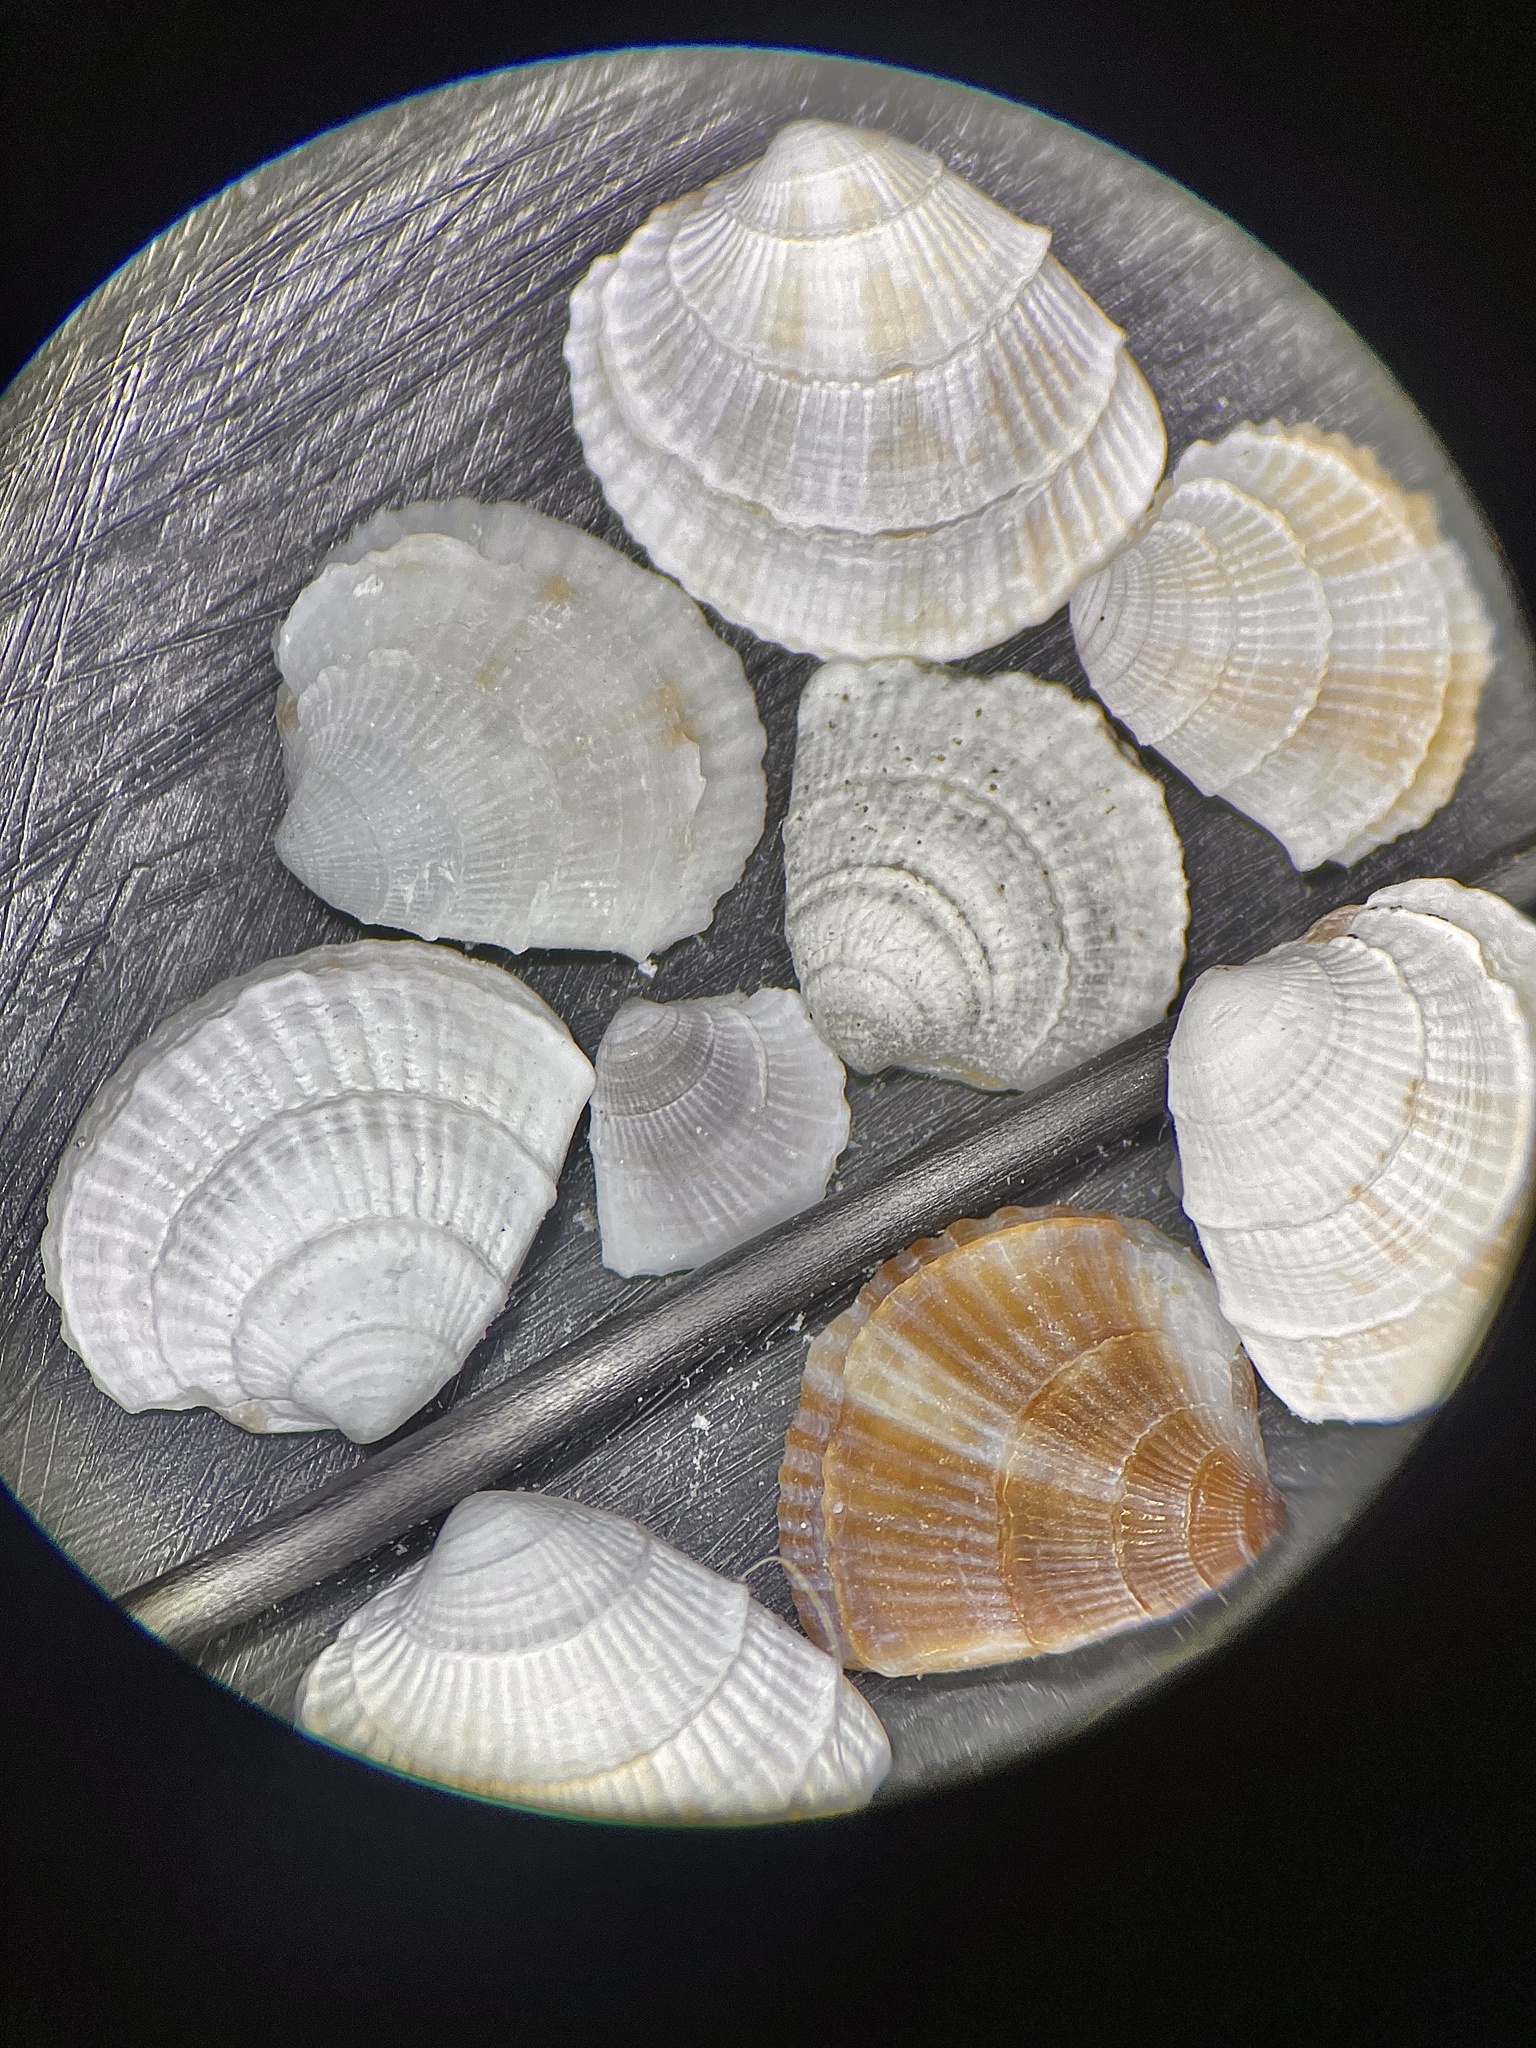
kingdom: Animalia
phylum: Mollusca
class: Bivalvia
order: Venerida
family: Veneridae
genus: Chione
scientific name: Chione elevata
